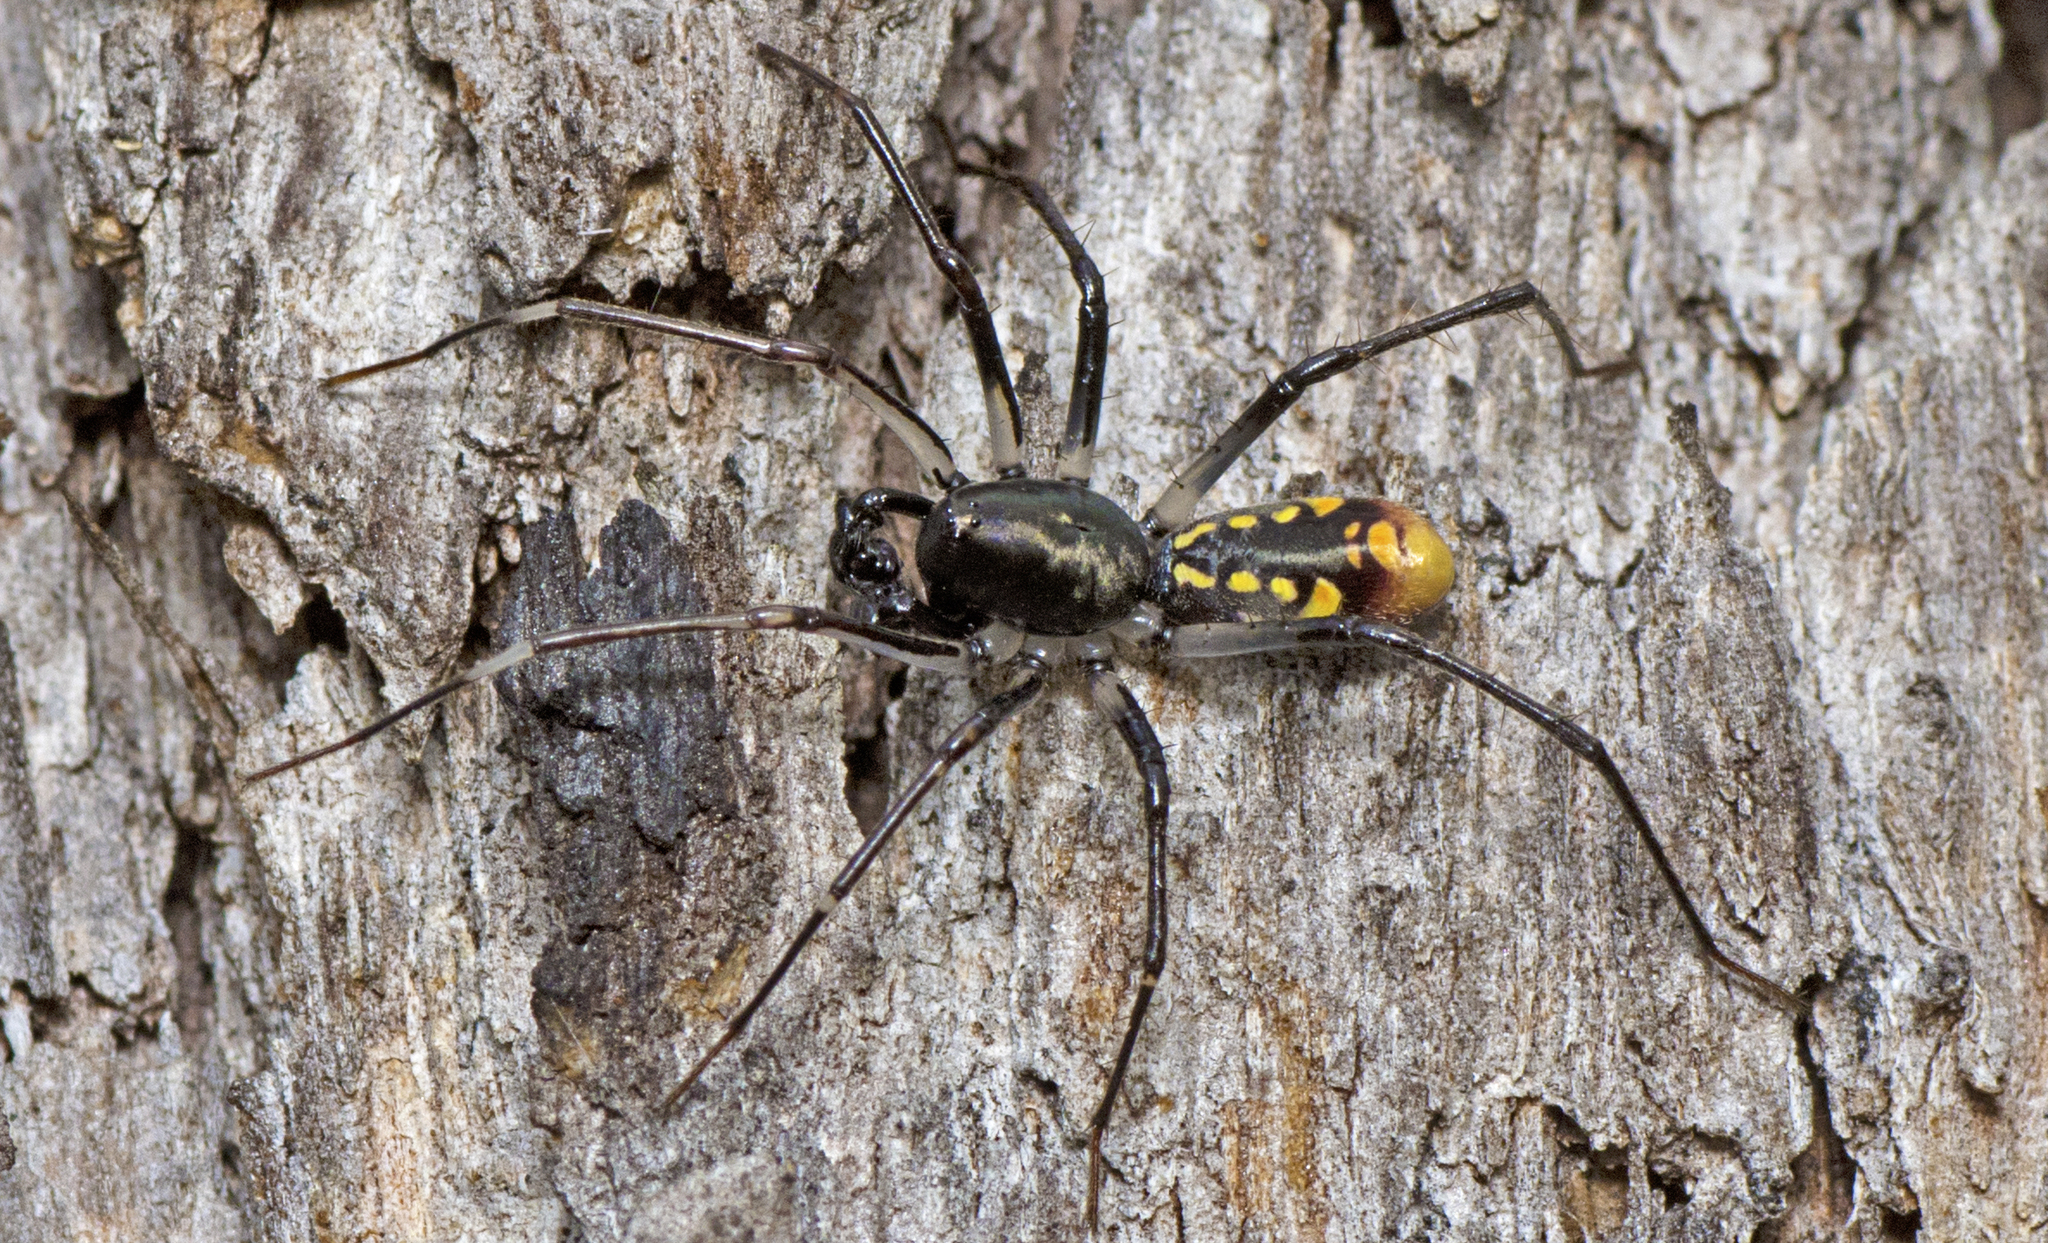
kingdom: Animalia
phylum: Arthropoda
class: Arachnida
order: Araneae
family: Zodariidae
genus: Subasteron
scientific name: Subasteron daviesae
